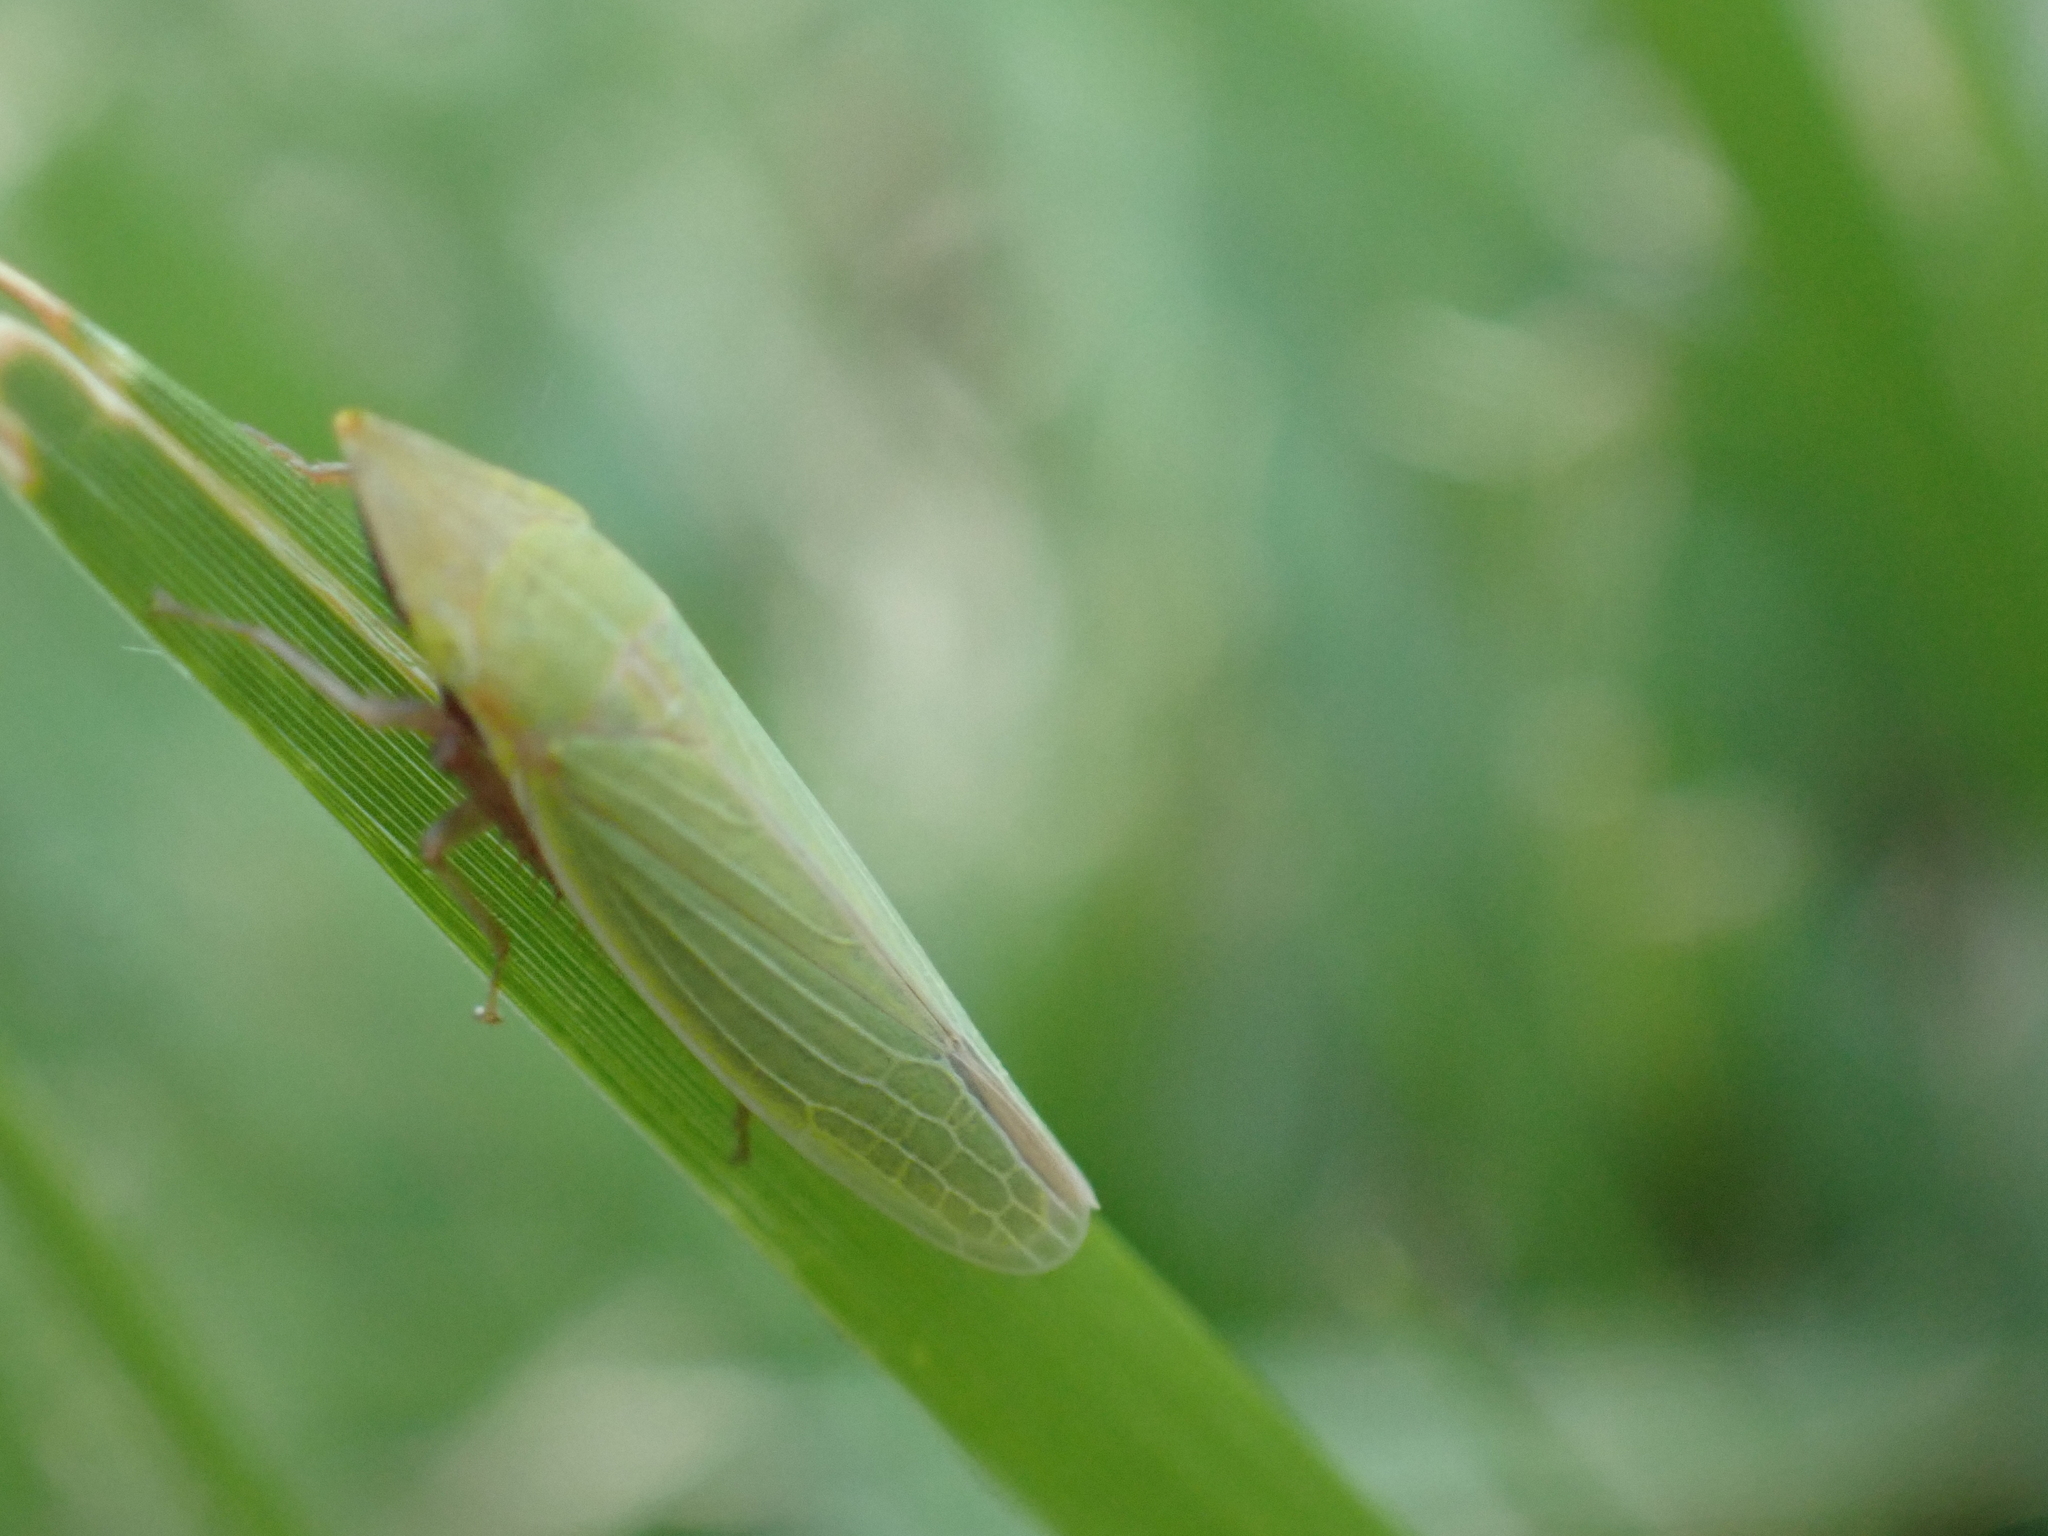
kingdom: Animalia
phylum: Arthropoda
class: Insecta
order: Hemiptera
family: Cicadellidae
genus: Draeculacephala
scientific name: Draeculacephala antica
